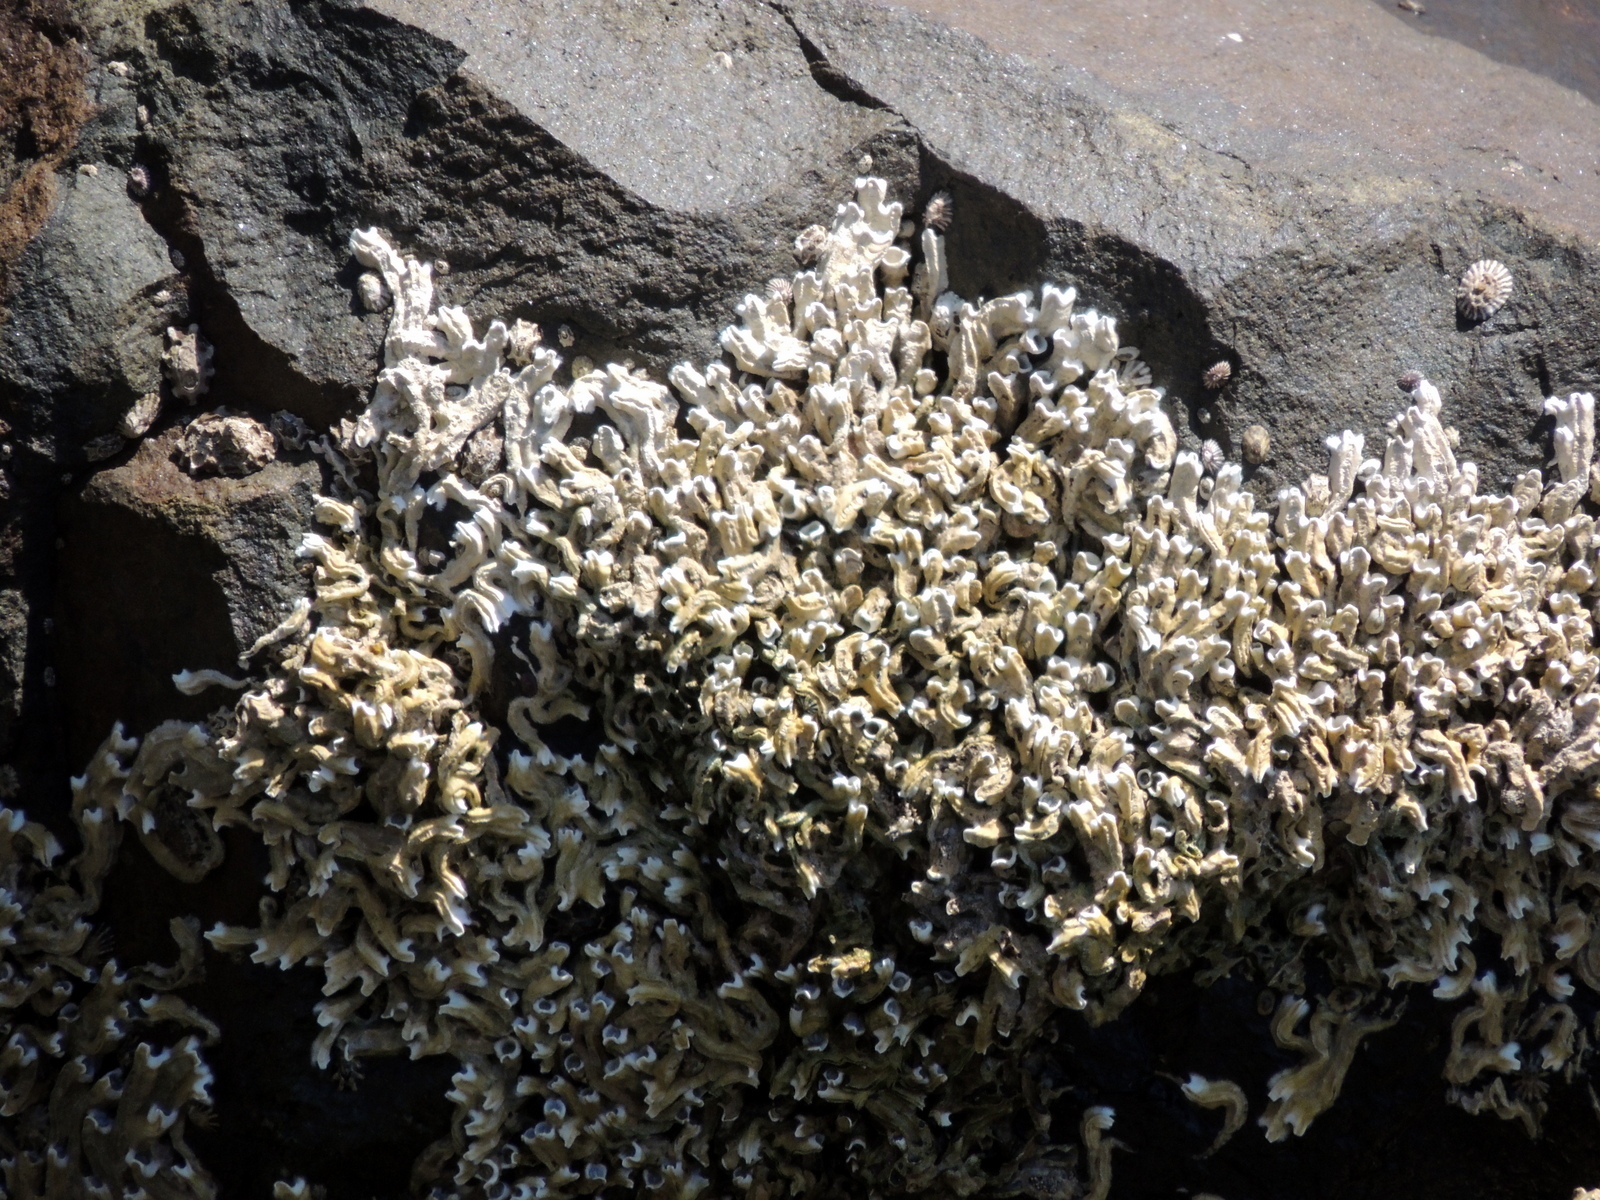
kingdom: Animalia
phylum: Annelida
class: Polychaeta
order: Sabellida
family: Serpulidae
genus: Galeolaria
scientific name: Galeolaria caespitosa
